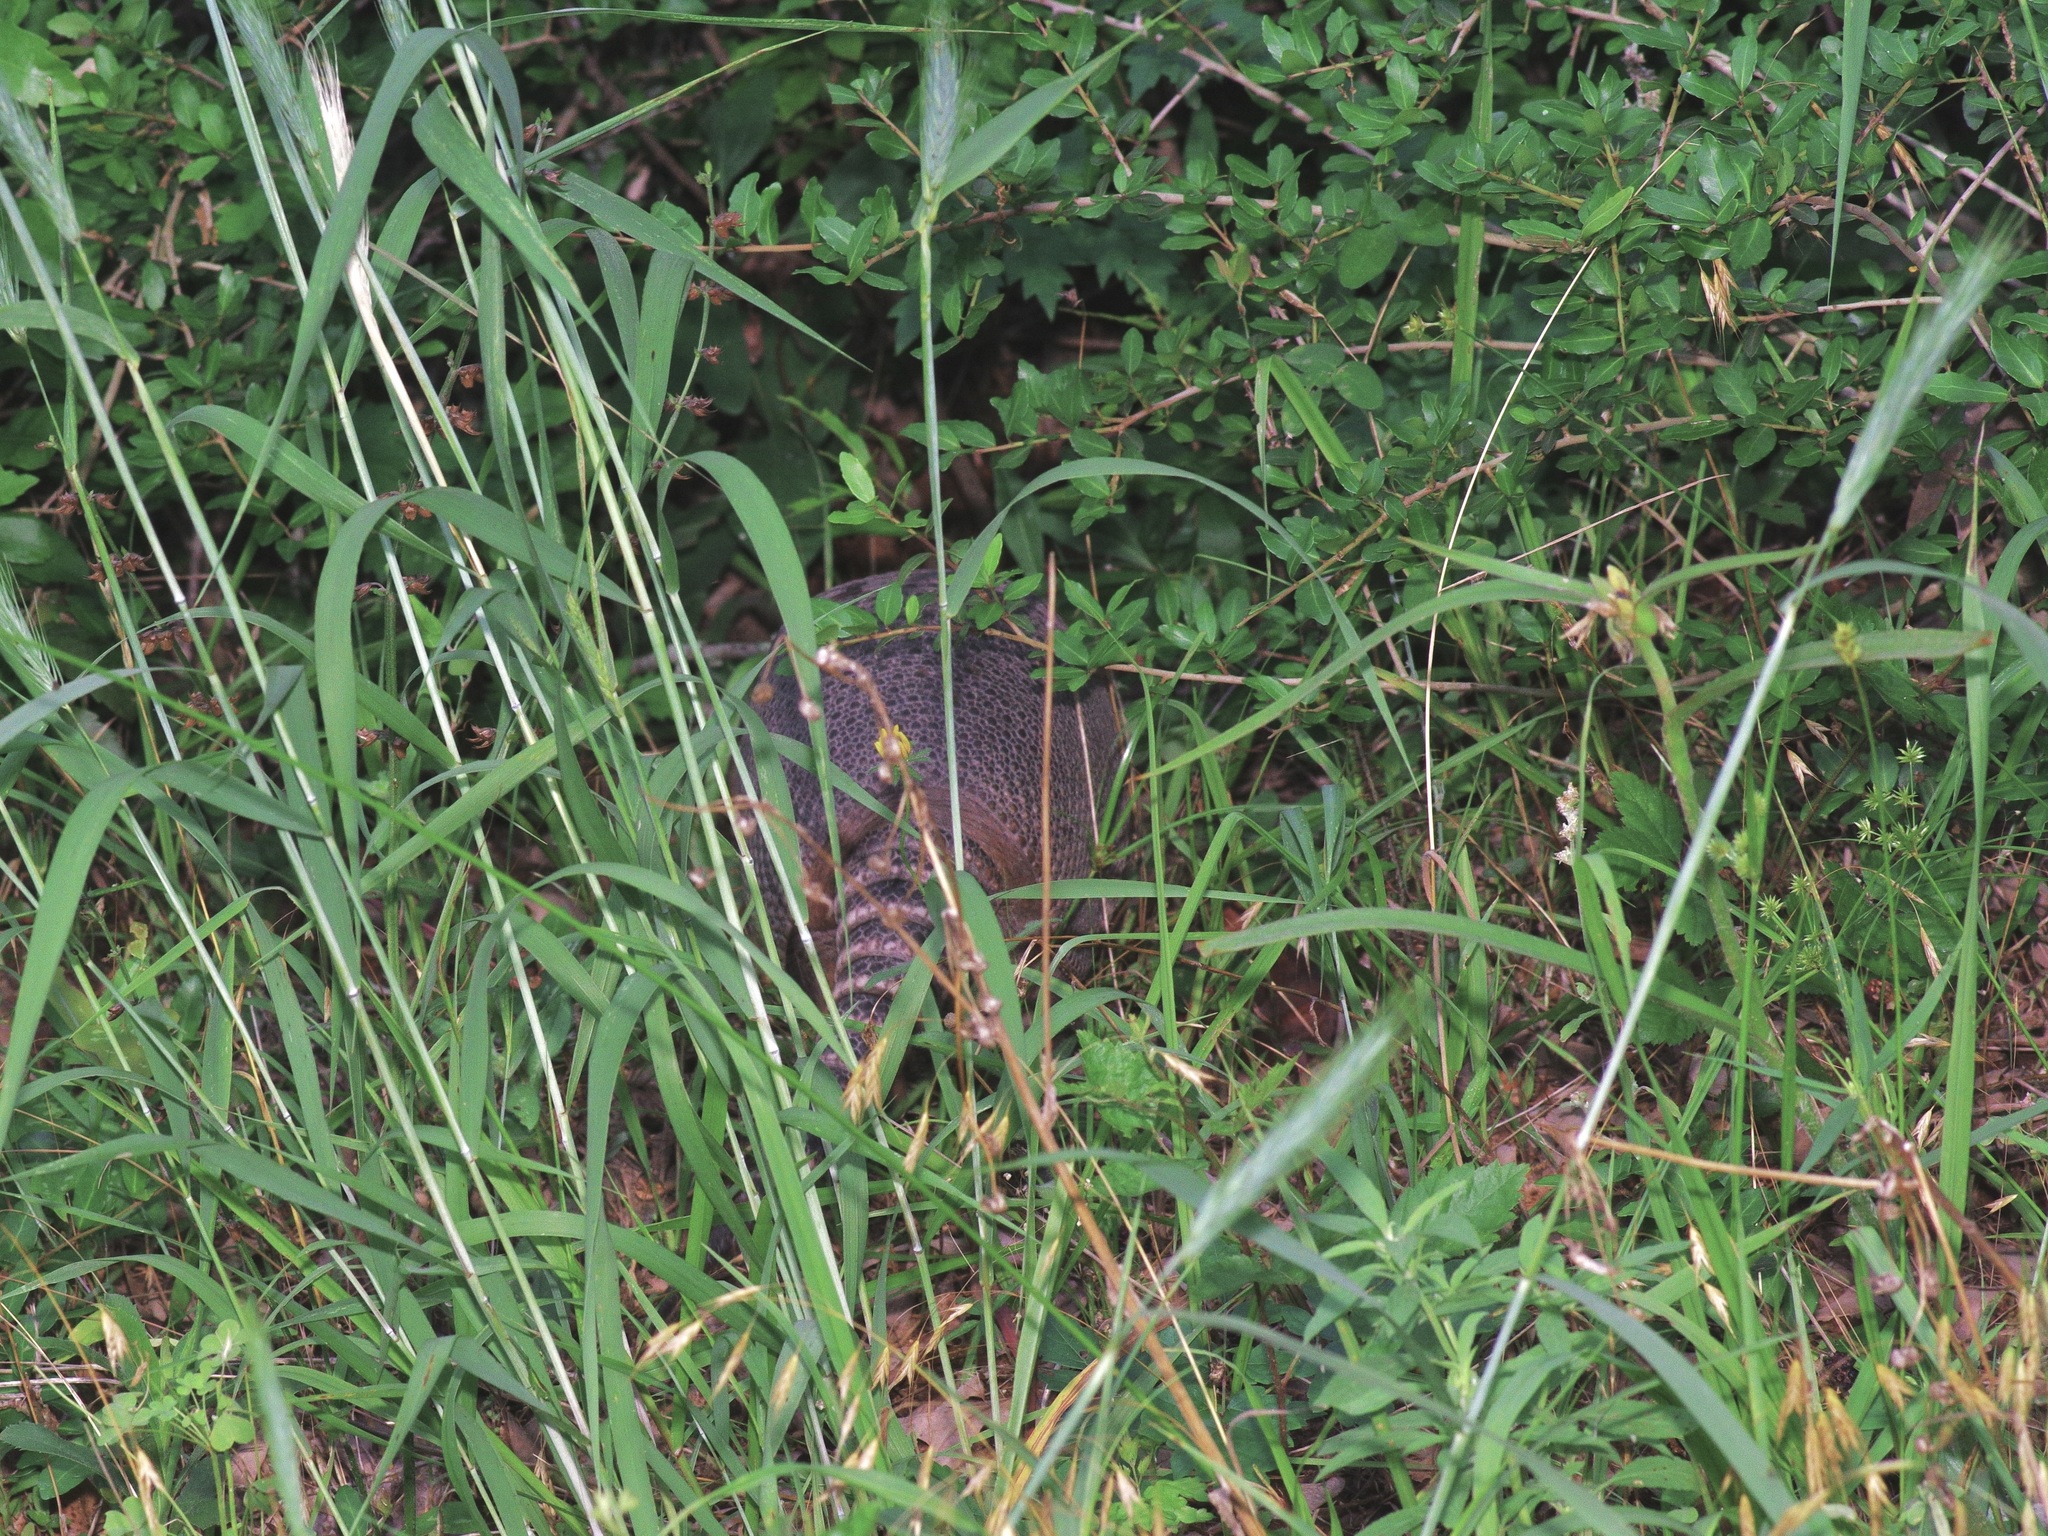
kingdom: Animalia
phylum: Chordata
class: Mammalia
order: Cingulata
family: Dasypodidae
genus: Dasypus
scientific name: Dasypus novemcinctus
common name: Nine-banded armadillo
